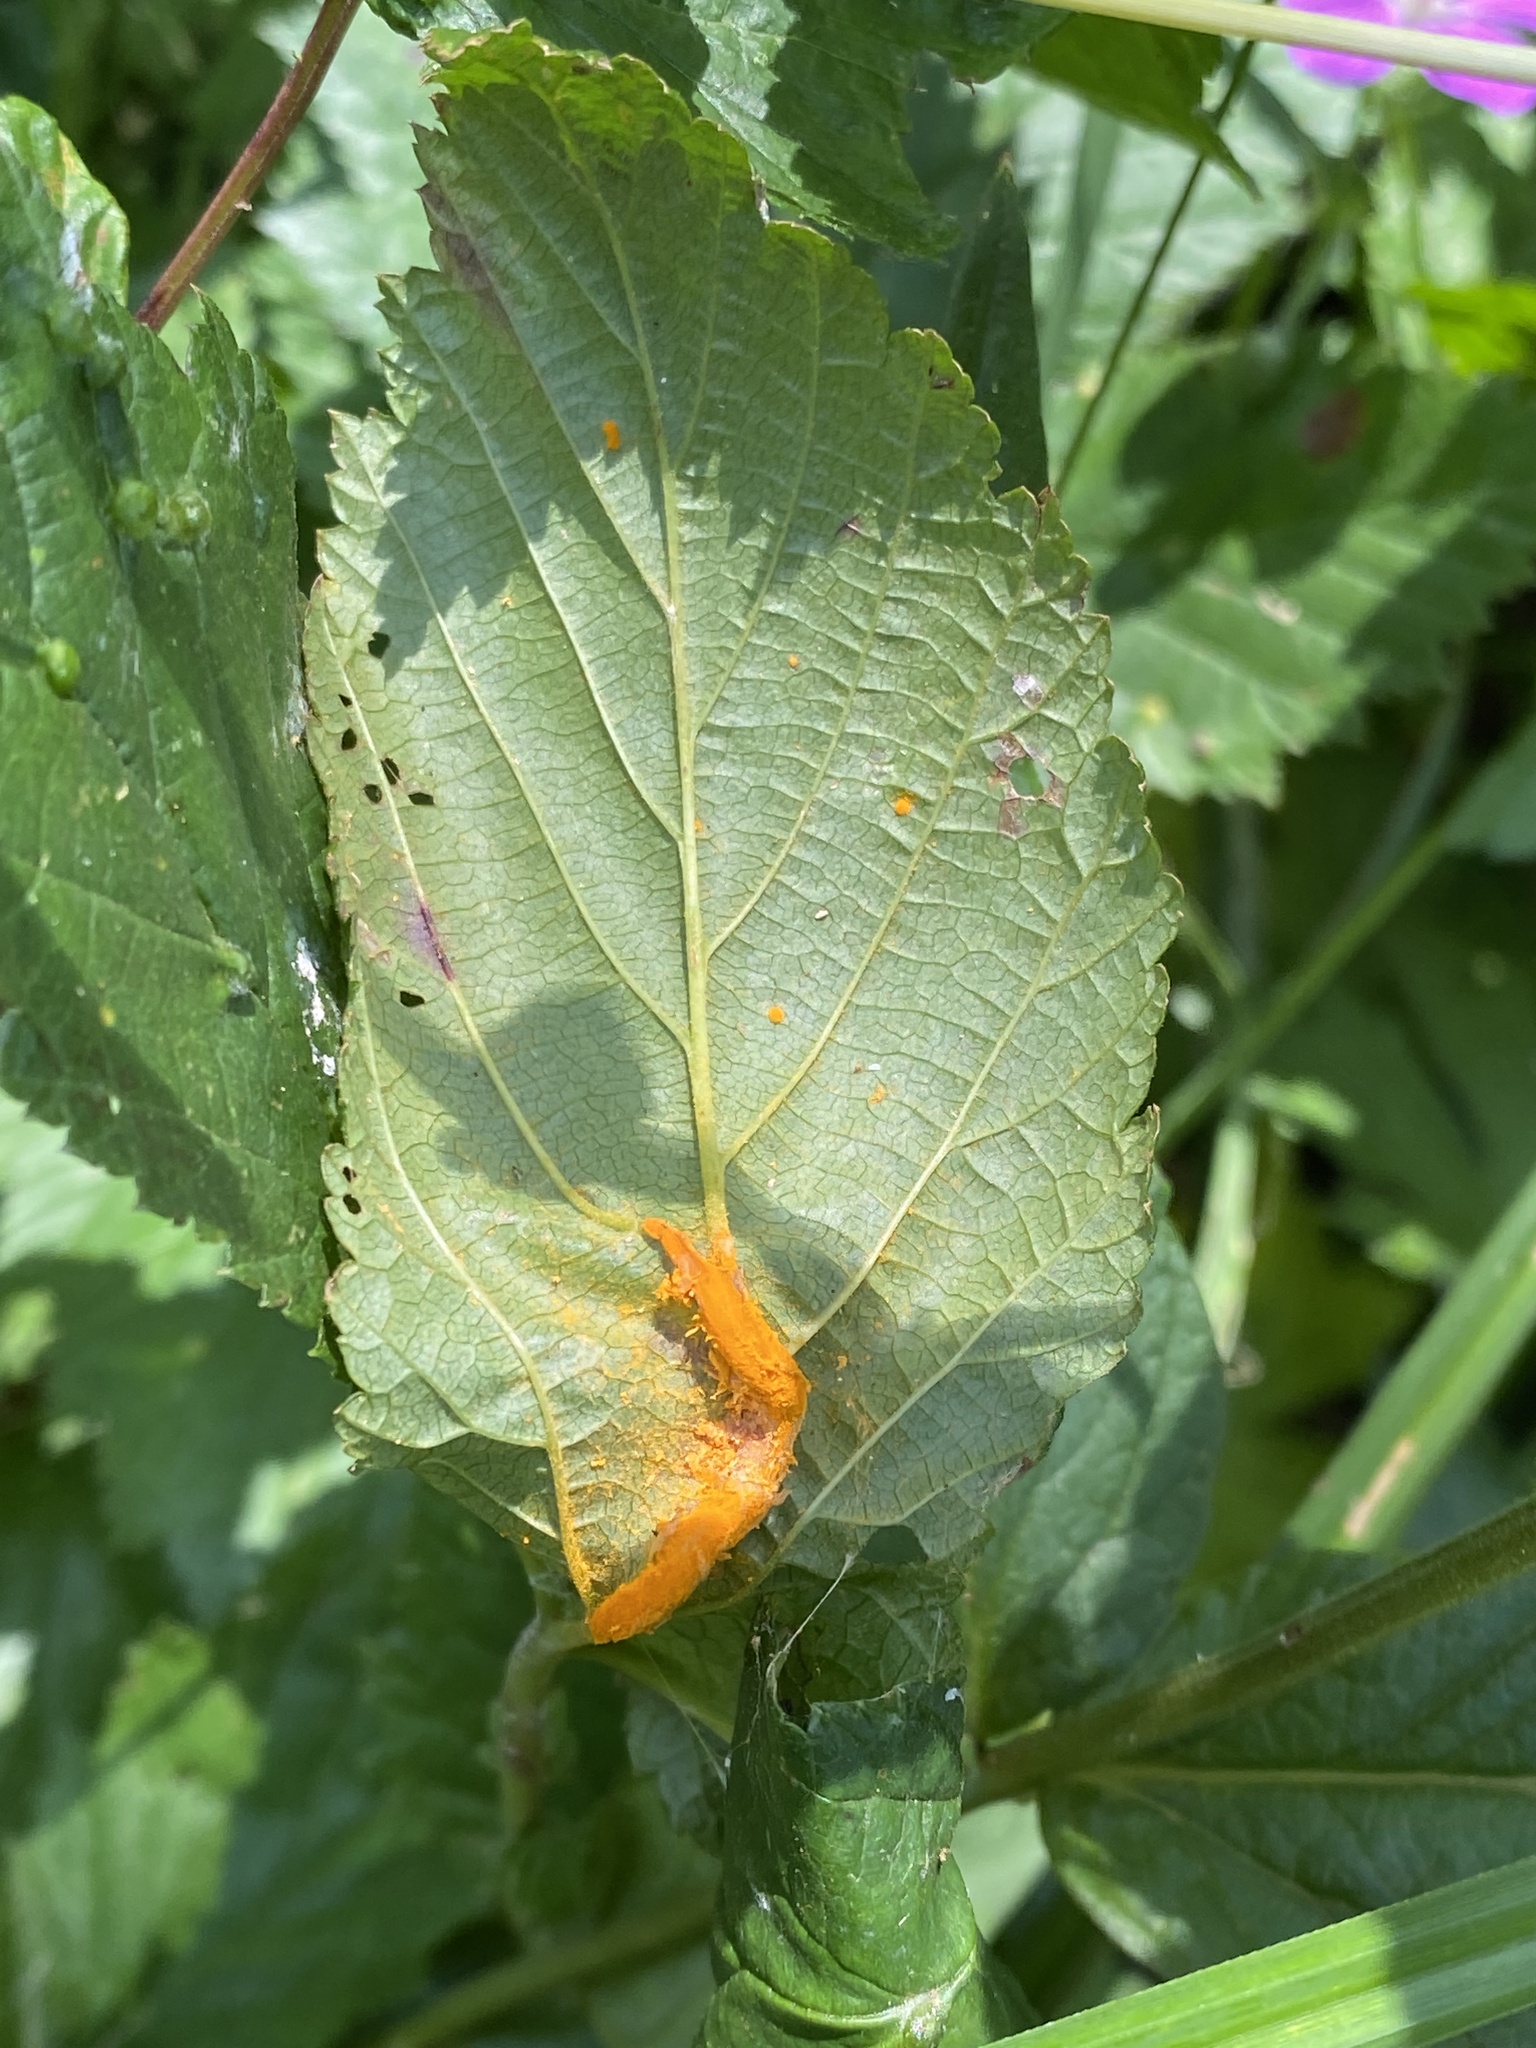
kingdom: Fungi
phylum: Basidiomycota
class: Pucciniomycetes
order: Pucciniales
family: Raveneliaceae
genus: Triphragmium
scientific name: Triphragmium ulmariae
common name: Meadowsweet rust
